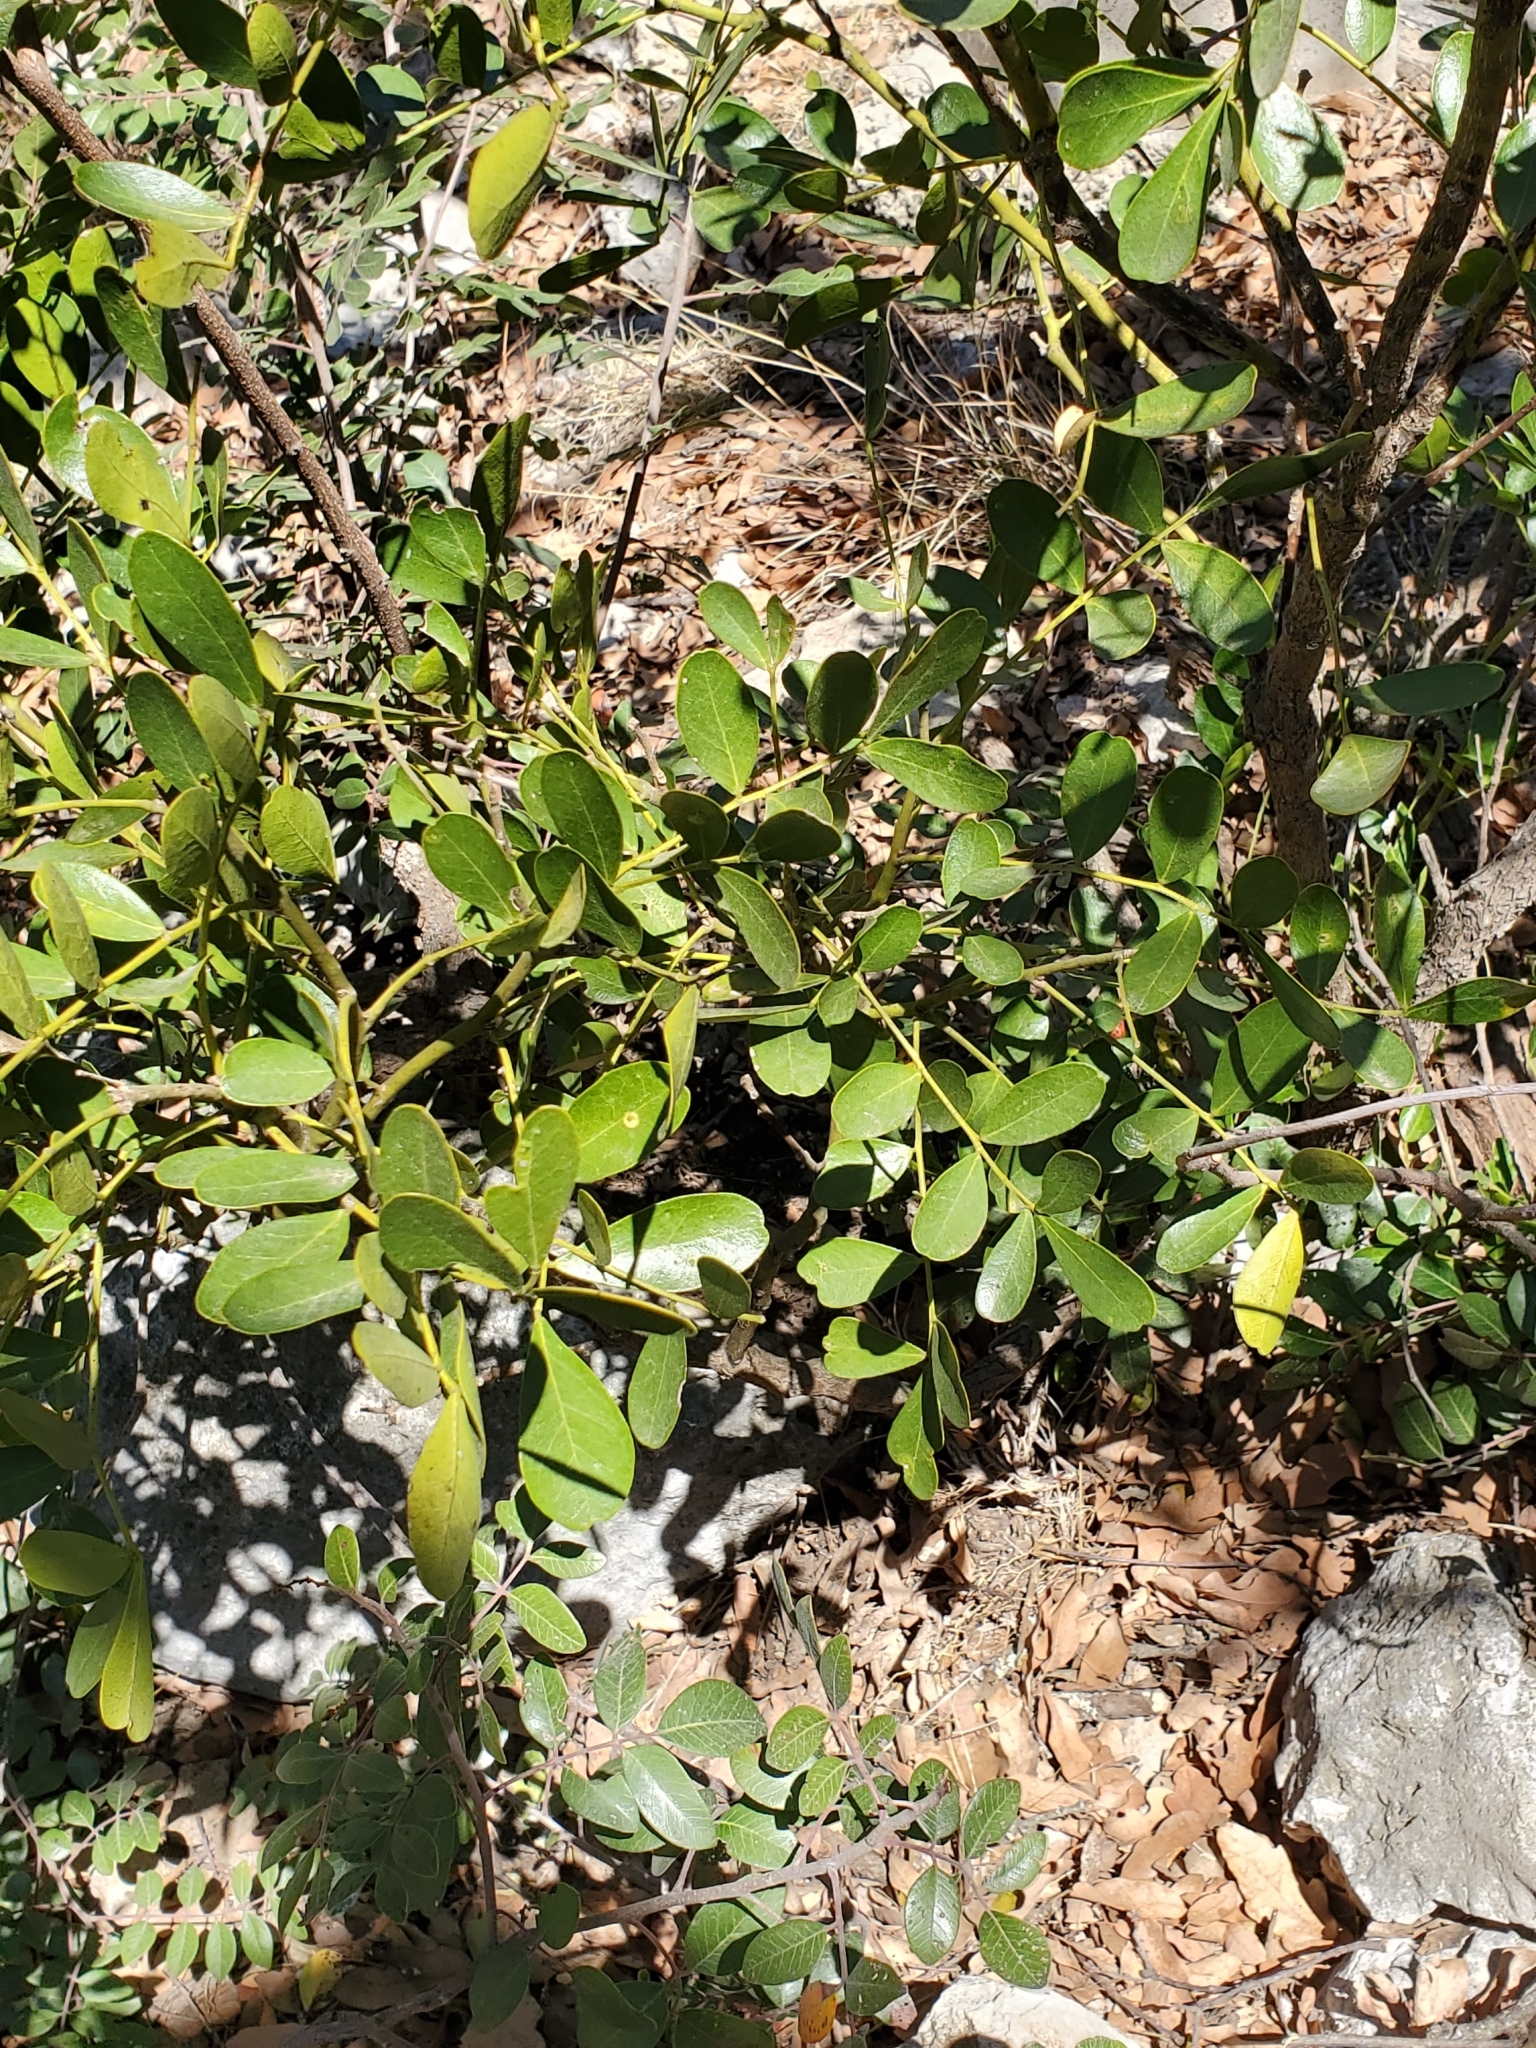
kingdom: Plantae
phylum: Tracheophyta
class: Magnoliopsida
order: Fabales
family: Fabaceae
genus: Dermatophyllum
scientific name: Dermatophyllum secundiflorum
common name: Texas-mountain-laurel
